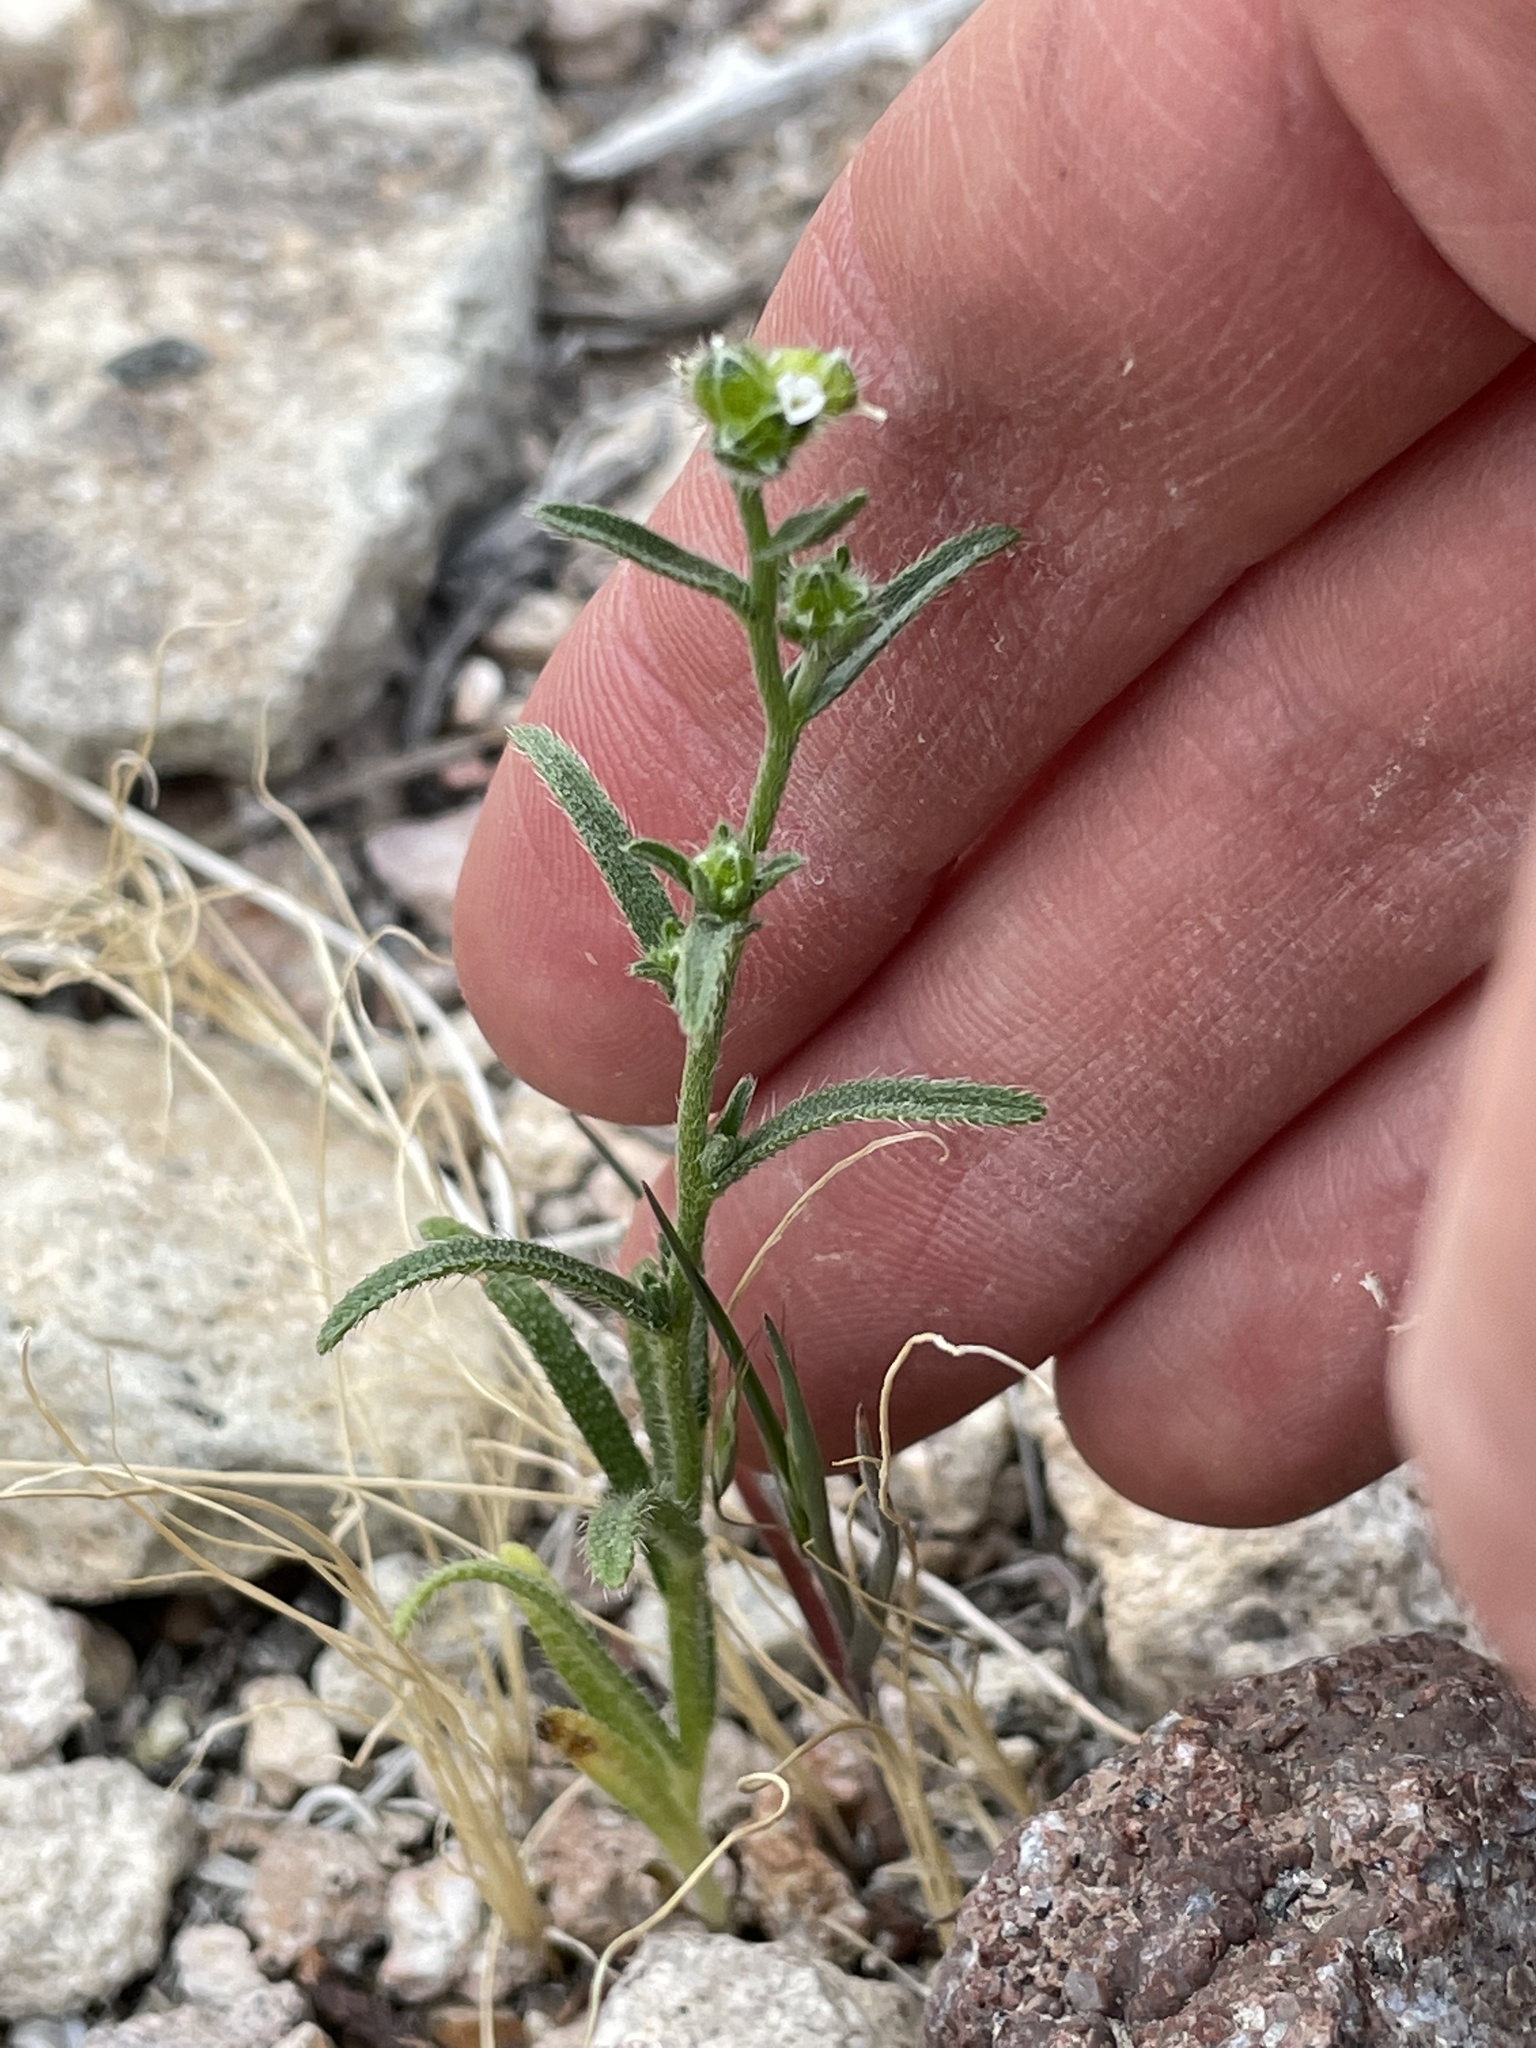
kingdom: Plantae
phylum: Tracheophyta
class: Magnoliopsida
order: Boraginales
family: Boraginaceae
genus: Cryptantha
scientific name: Cryptantha pterocarya
